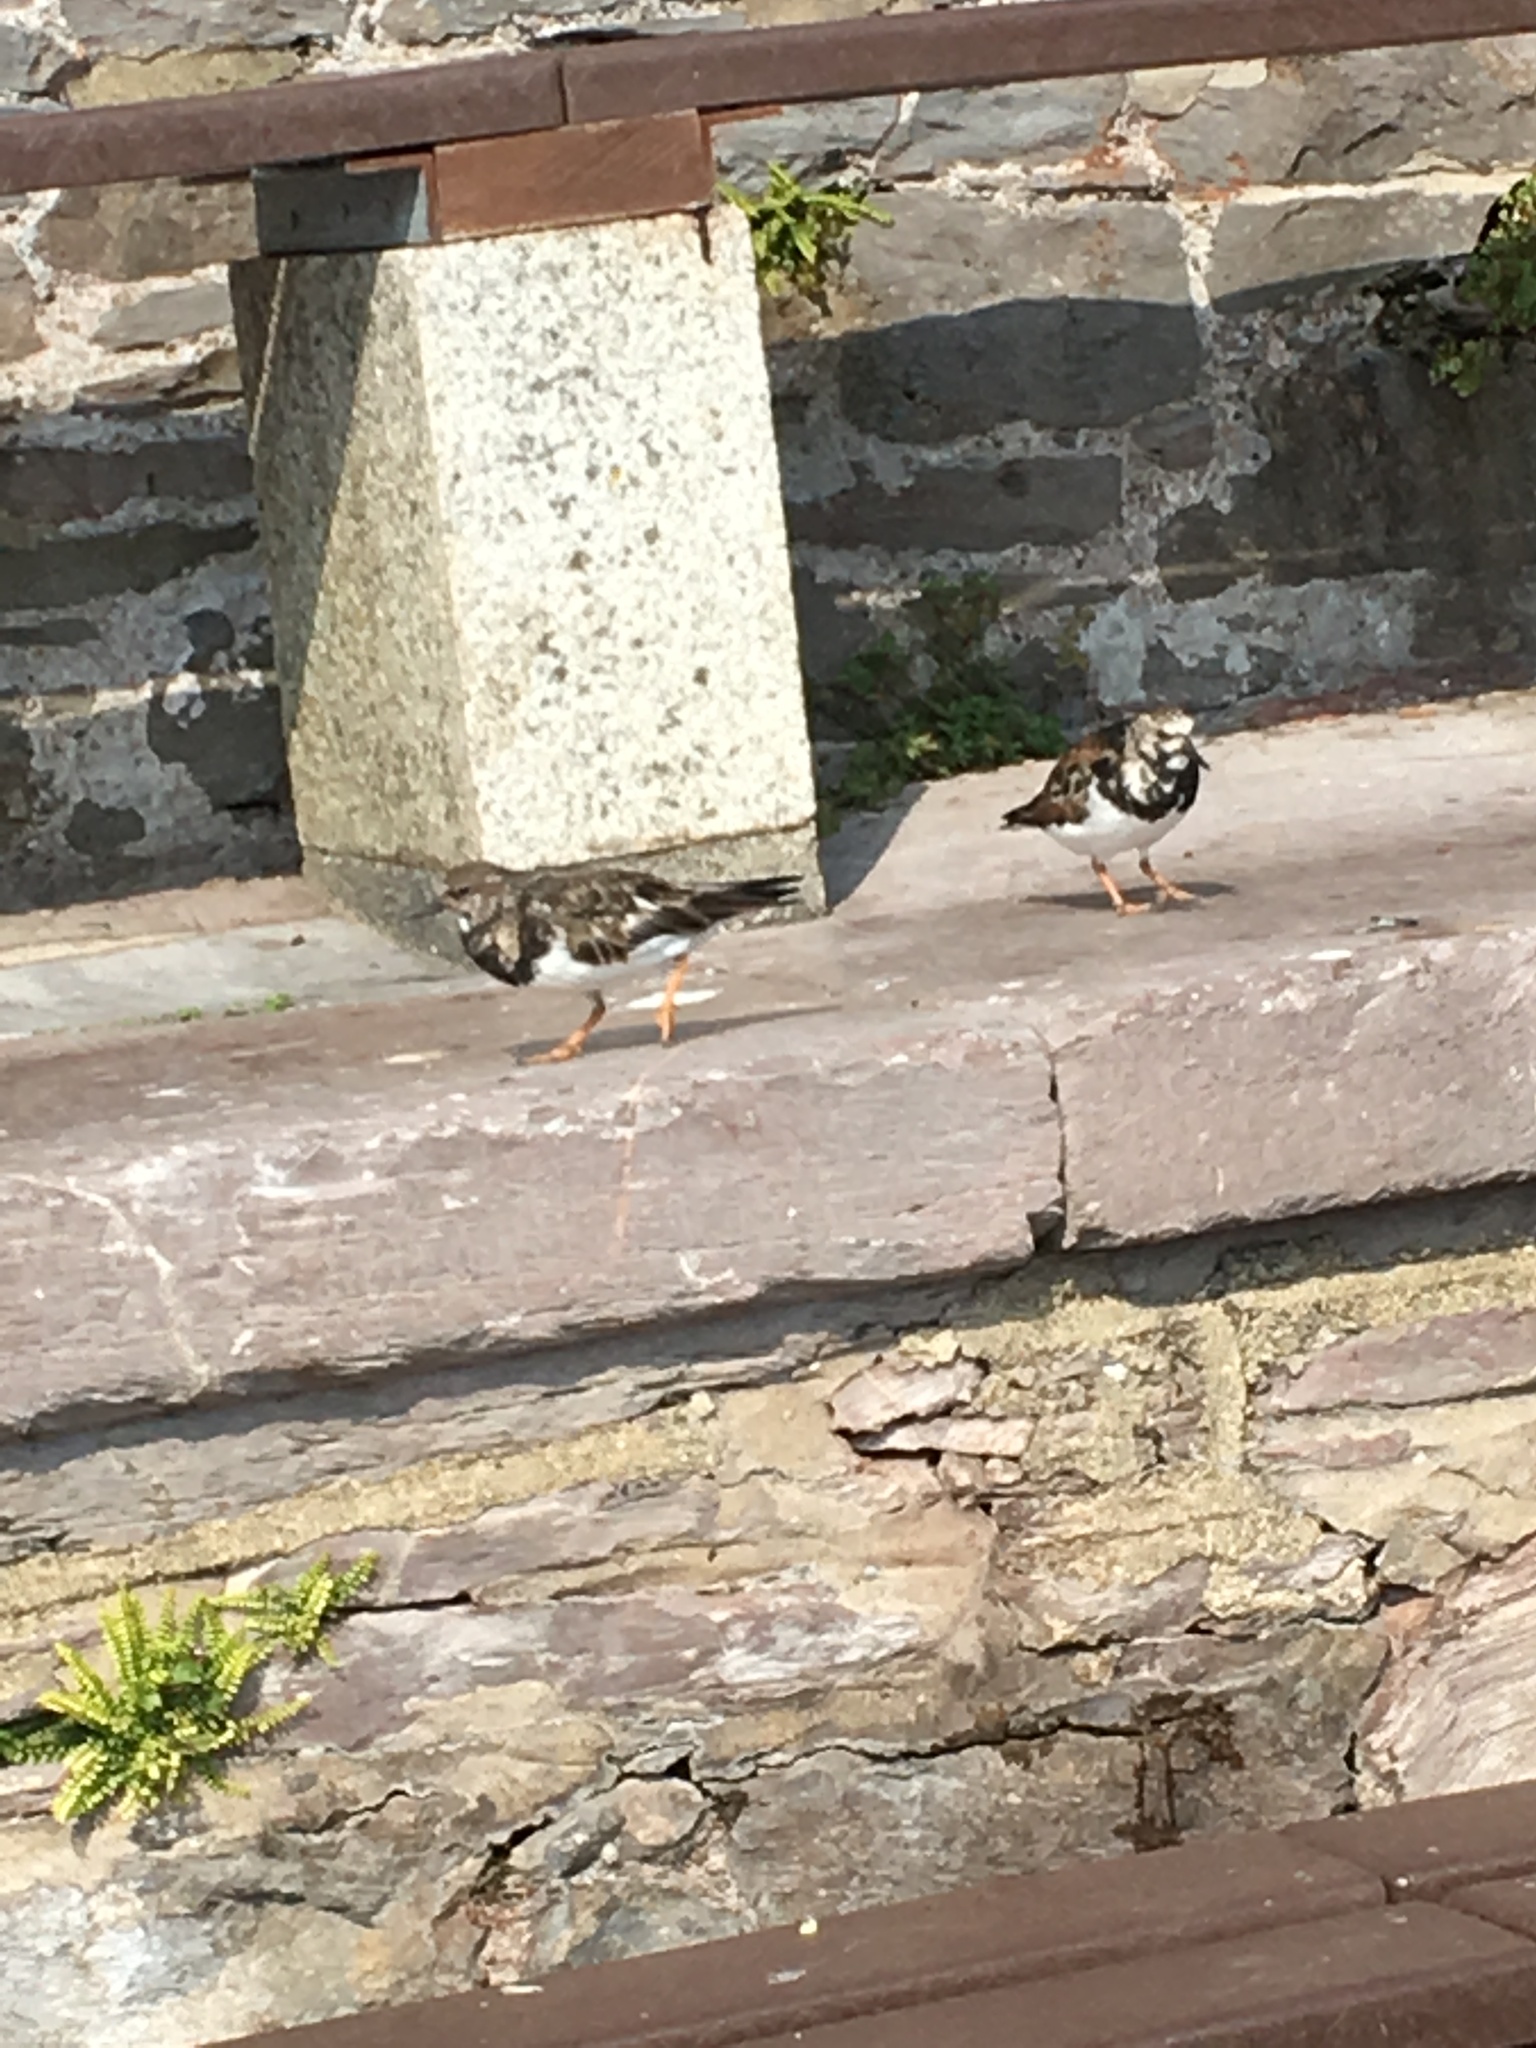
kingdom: Animalia
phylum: Chordata
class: Aves
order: Charadriiformes
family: Scolopacidae
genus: Arenaria
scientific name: Arenaria interpres
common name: Ruddy turnstone
